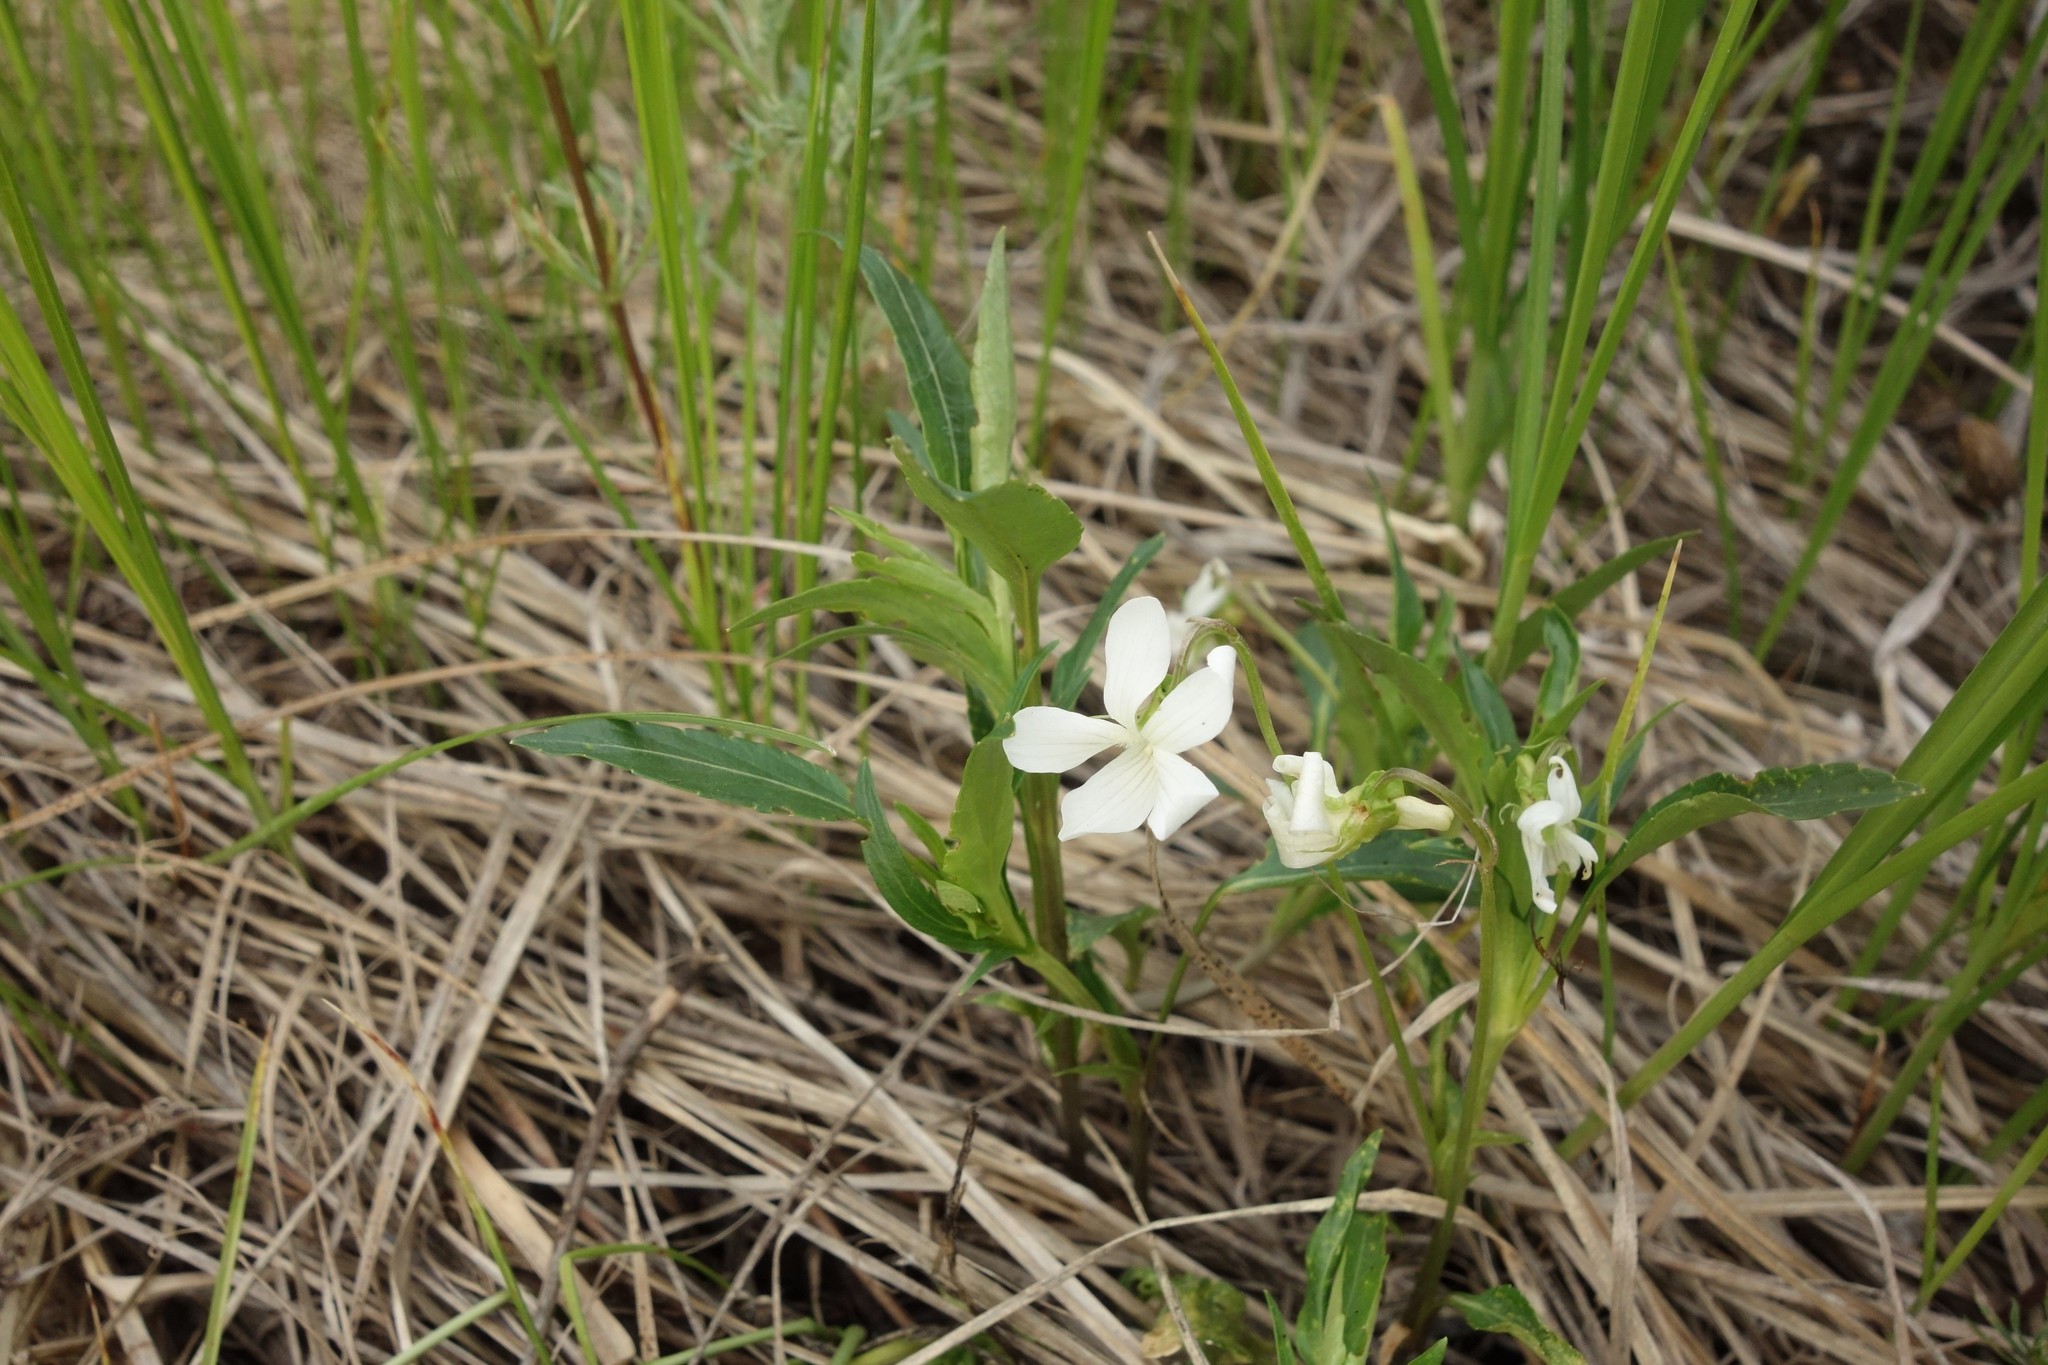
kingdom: Plantae
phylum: Tracheophyta
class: Magnoliopsida
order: Malpighiales
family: Violaceae
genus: Viola
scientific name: Viola pumila
